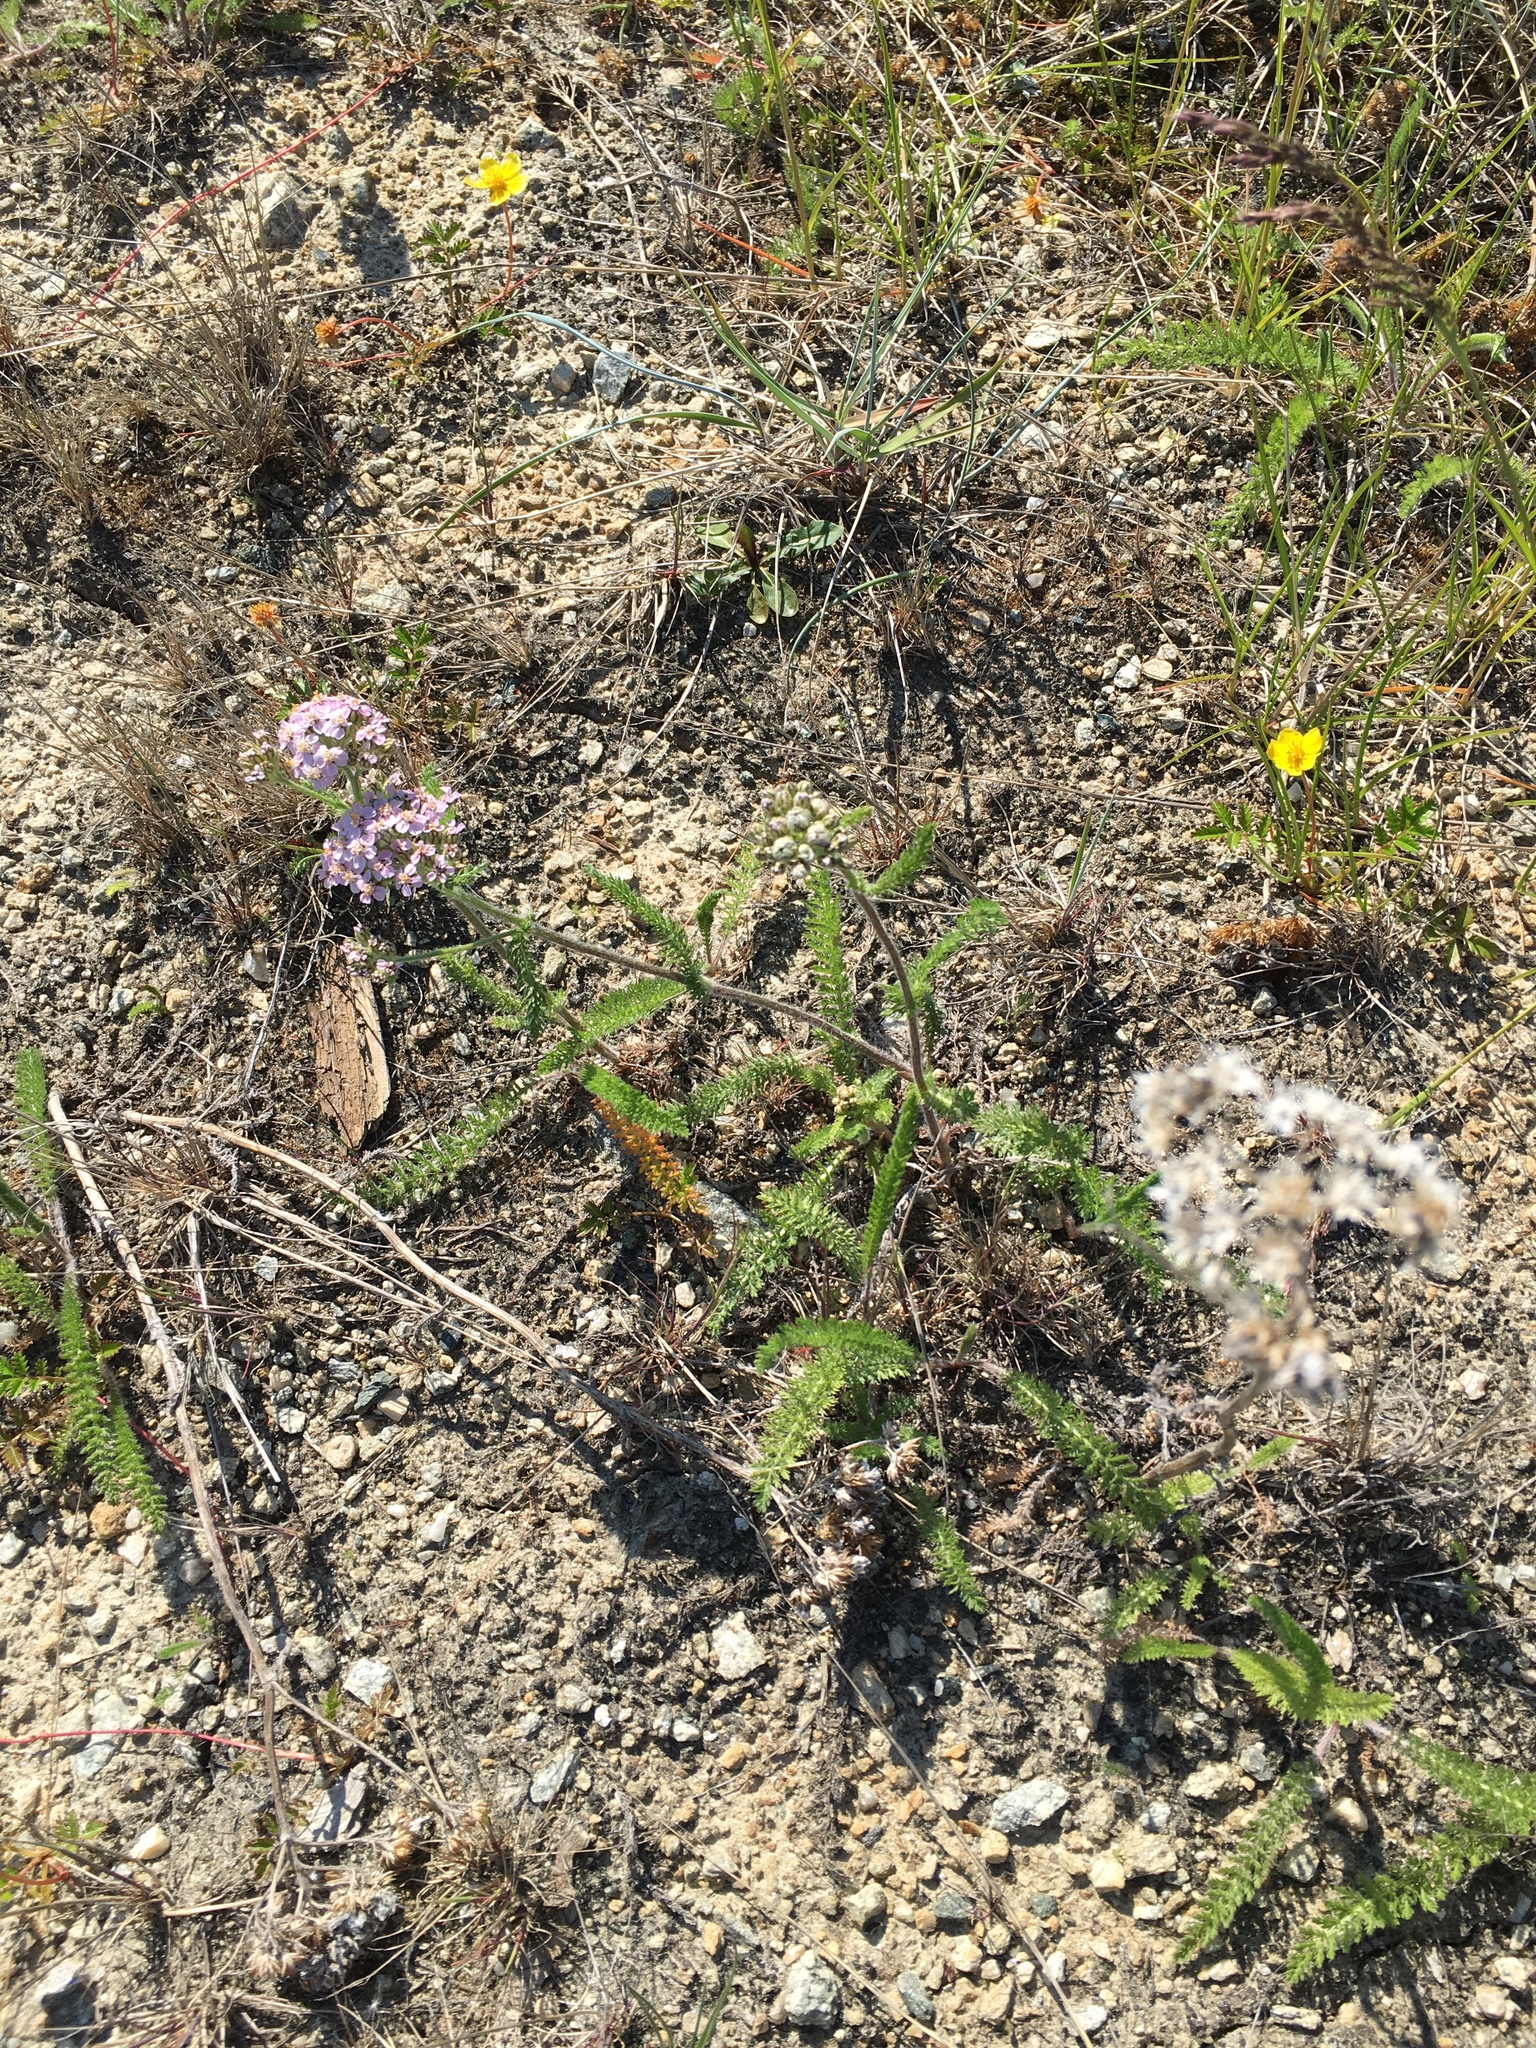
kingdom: Plantae
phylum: Tracheophyta
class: Magnoliopsida
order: Asterales
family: Asteraceae
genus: Achillea
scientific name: Achillea millefolium
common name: Yarrow
